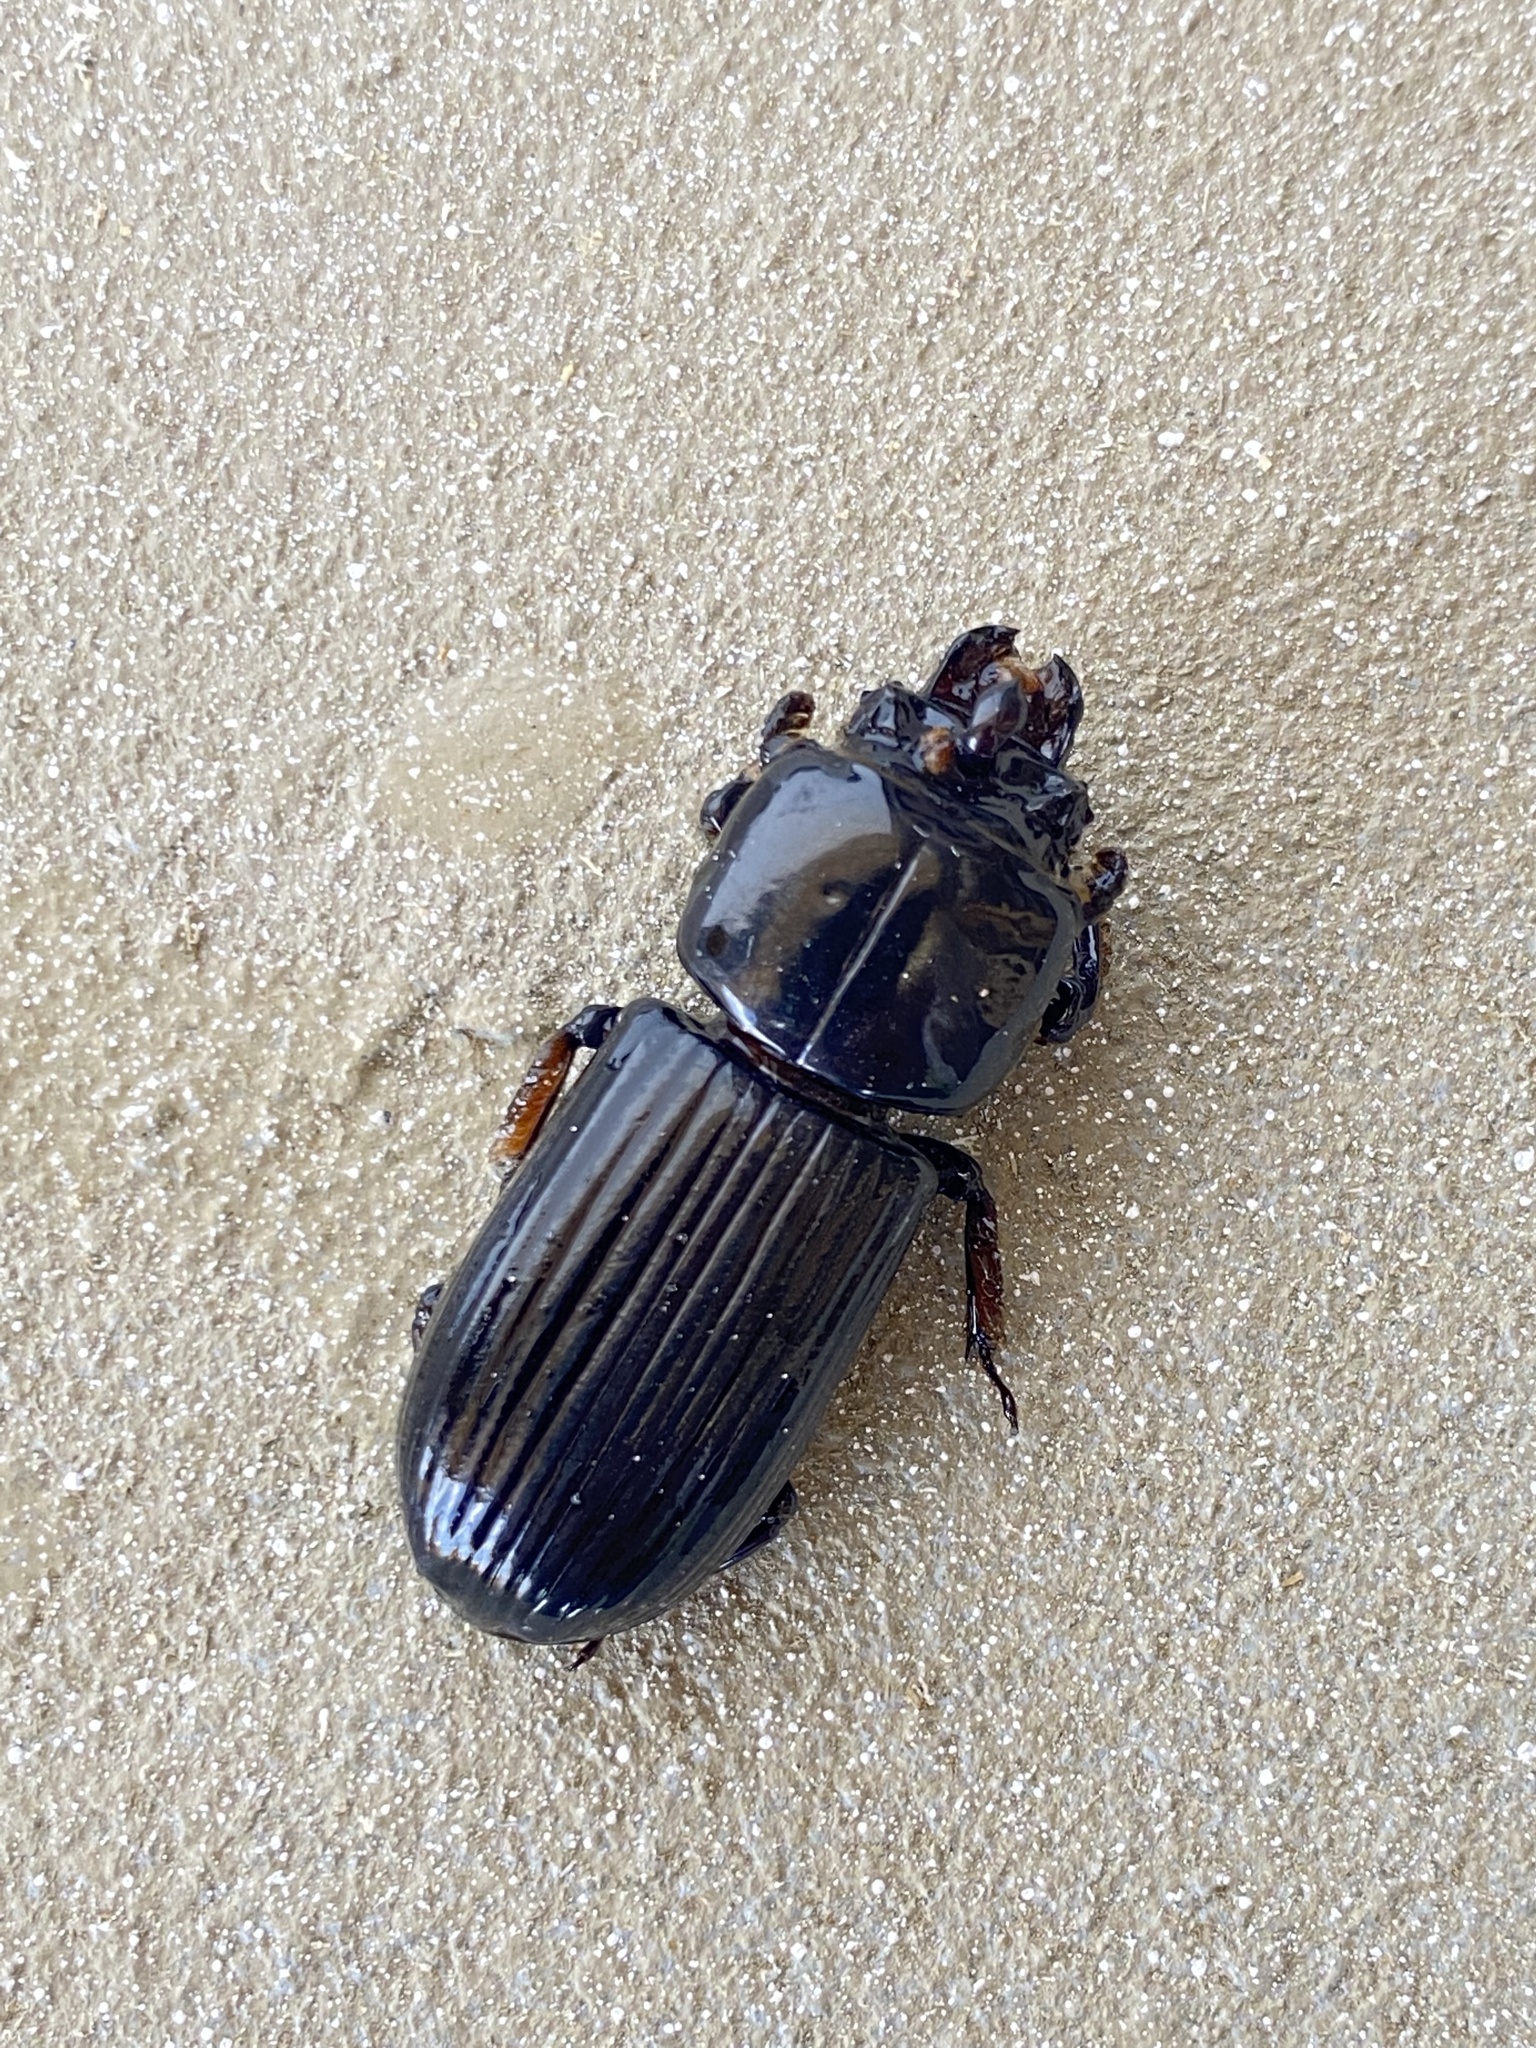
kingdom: Animalia
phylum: Arthropoda
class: Insecta
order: Coleoptera
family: Passalidae
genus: Odontotaenius
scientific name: Odontotaenius disjunctus
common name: Patent leather beetle
